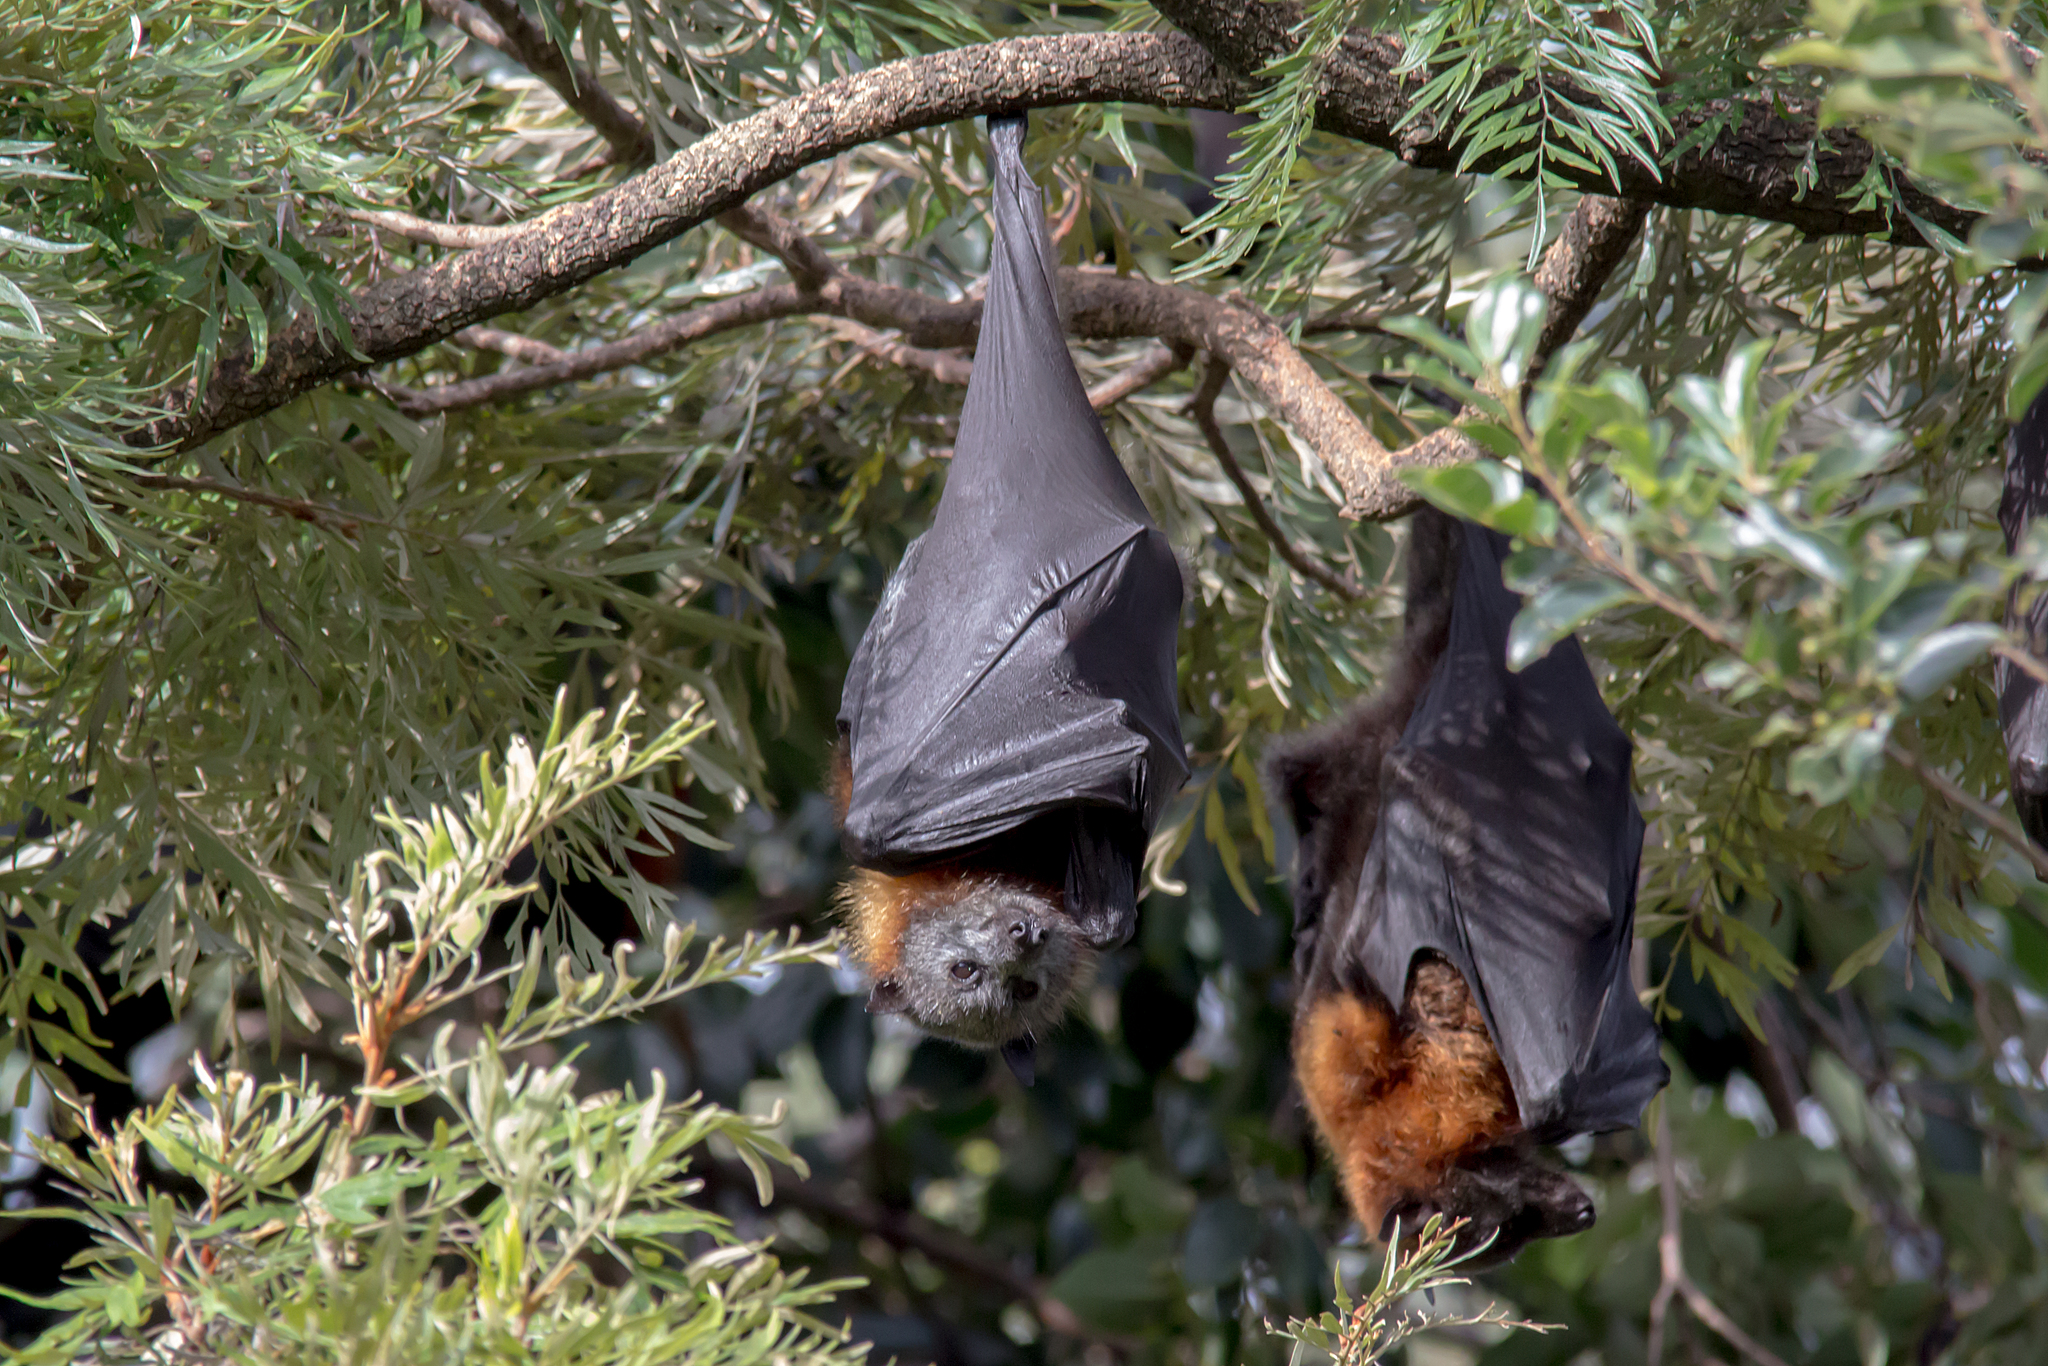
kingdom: Animalia
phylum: Chordata
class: Mammalia
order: Chiroptera
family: Pteropodidae
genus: Pteropus
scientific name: Pteropus poliocephalus
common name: Gray-headed flying fox
